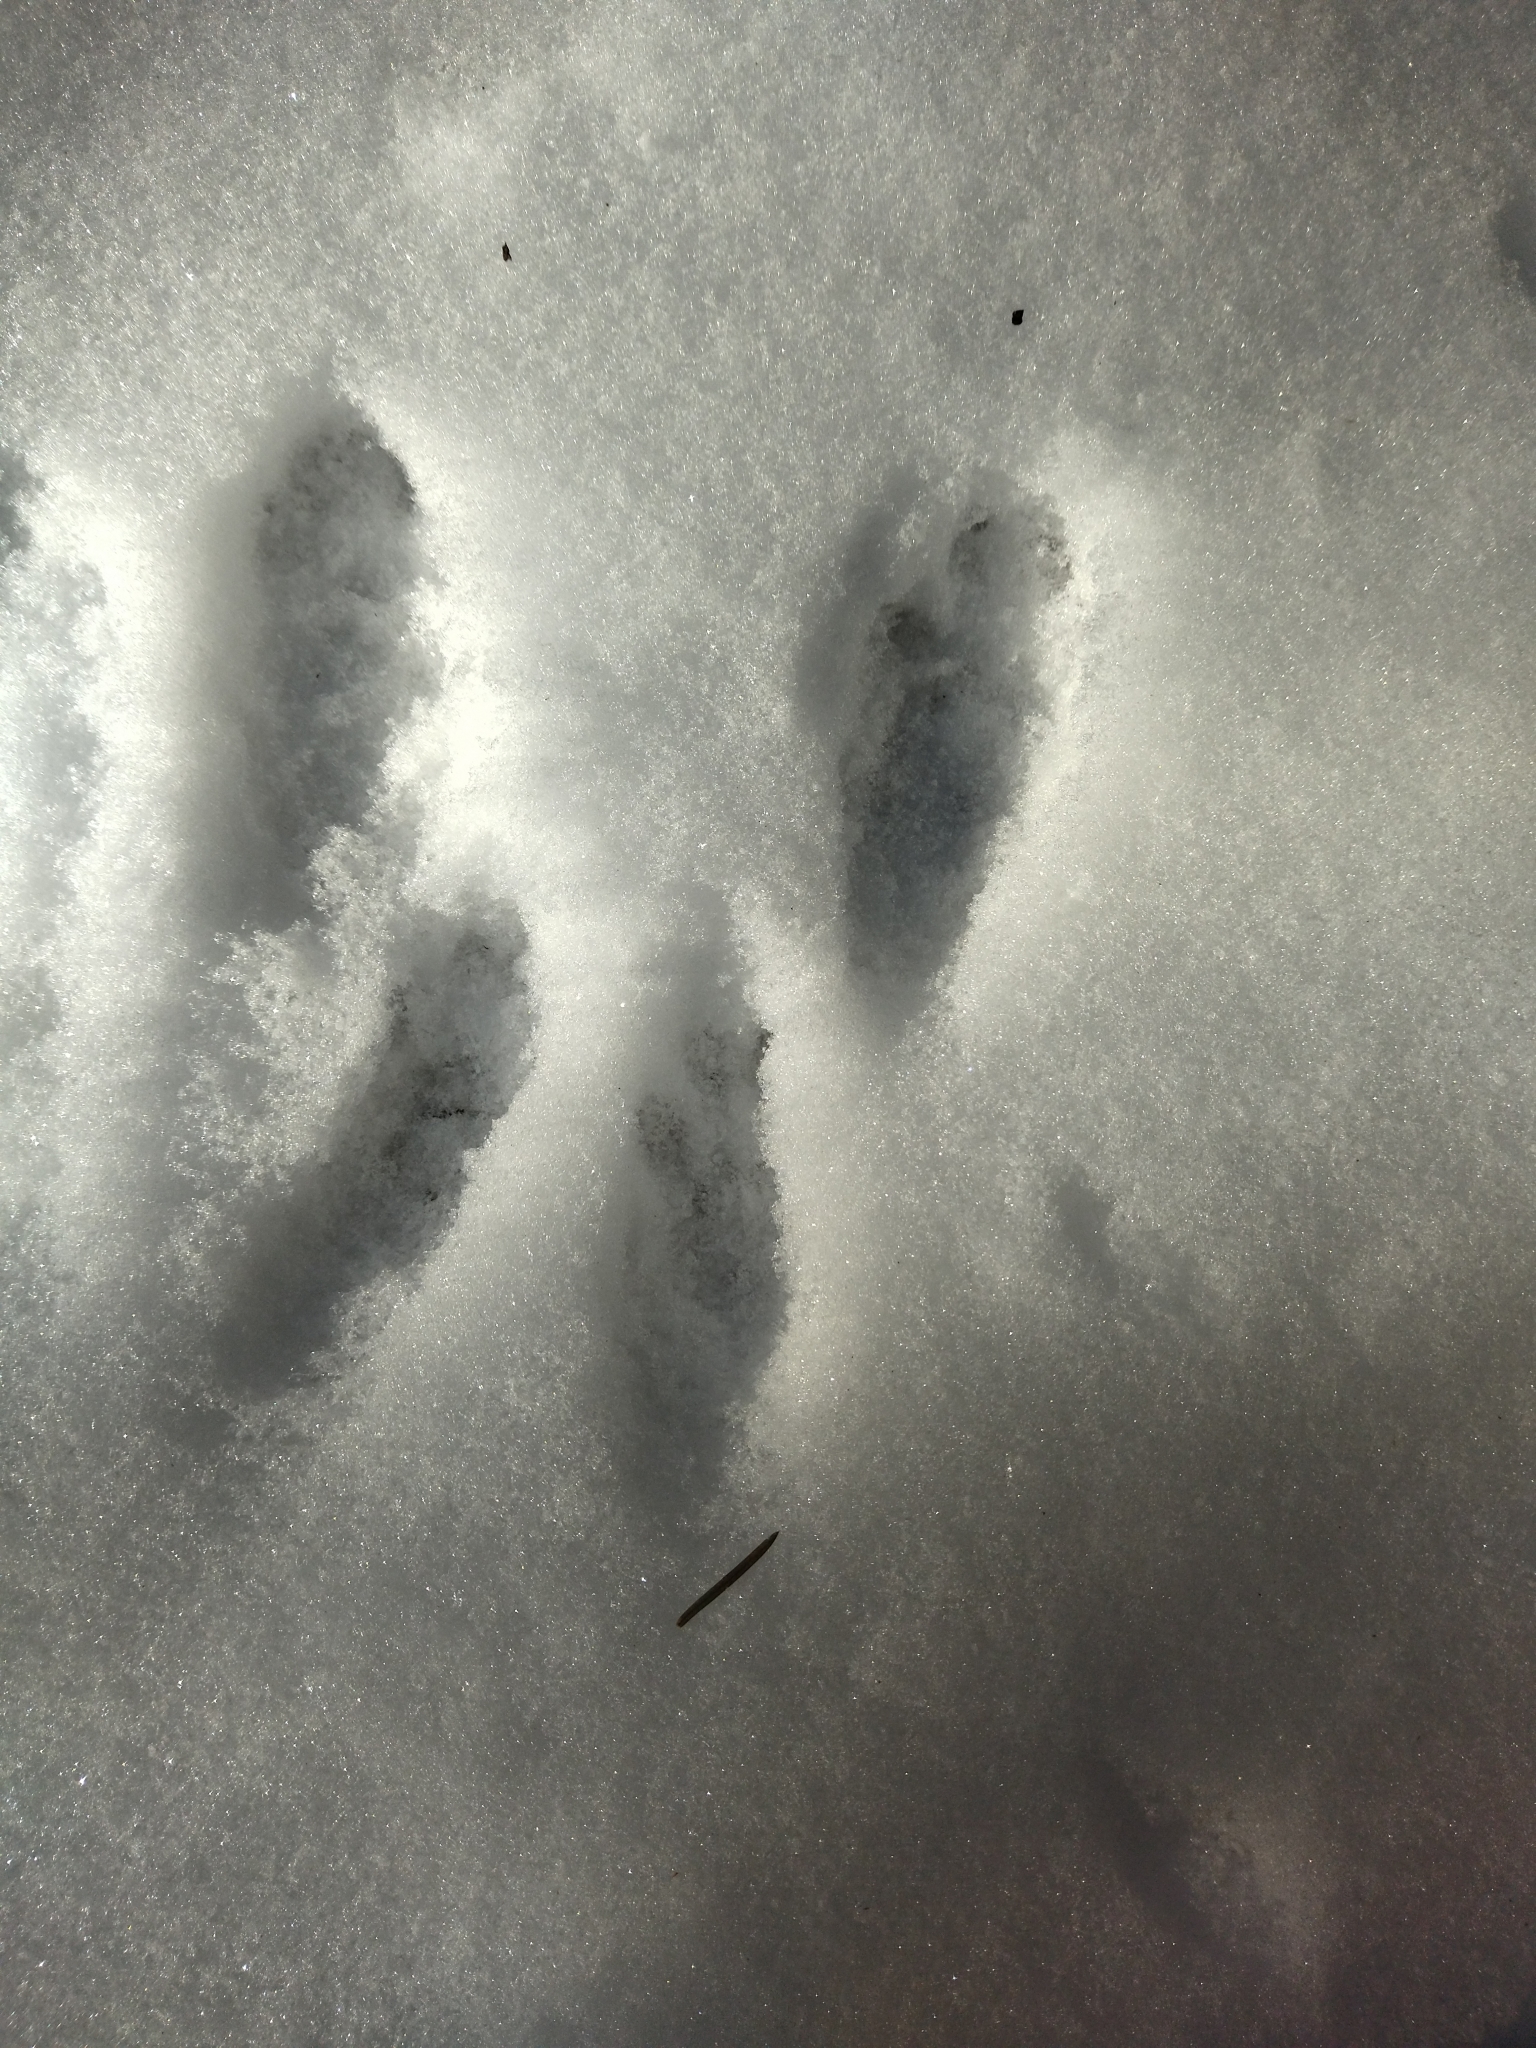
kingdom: Animalia
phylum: Chordata
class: Mammalia
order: Rodentia
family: Sciuridae
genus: Sciurus
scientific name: Sciurus vulgaris
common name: Eurasian red squirrel
